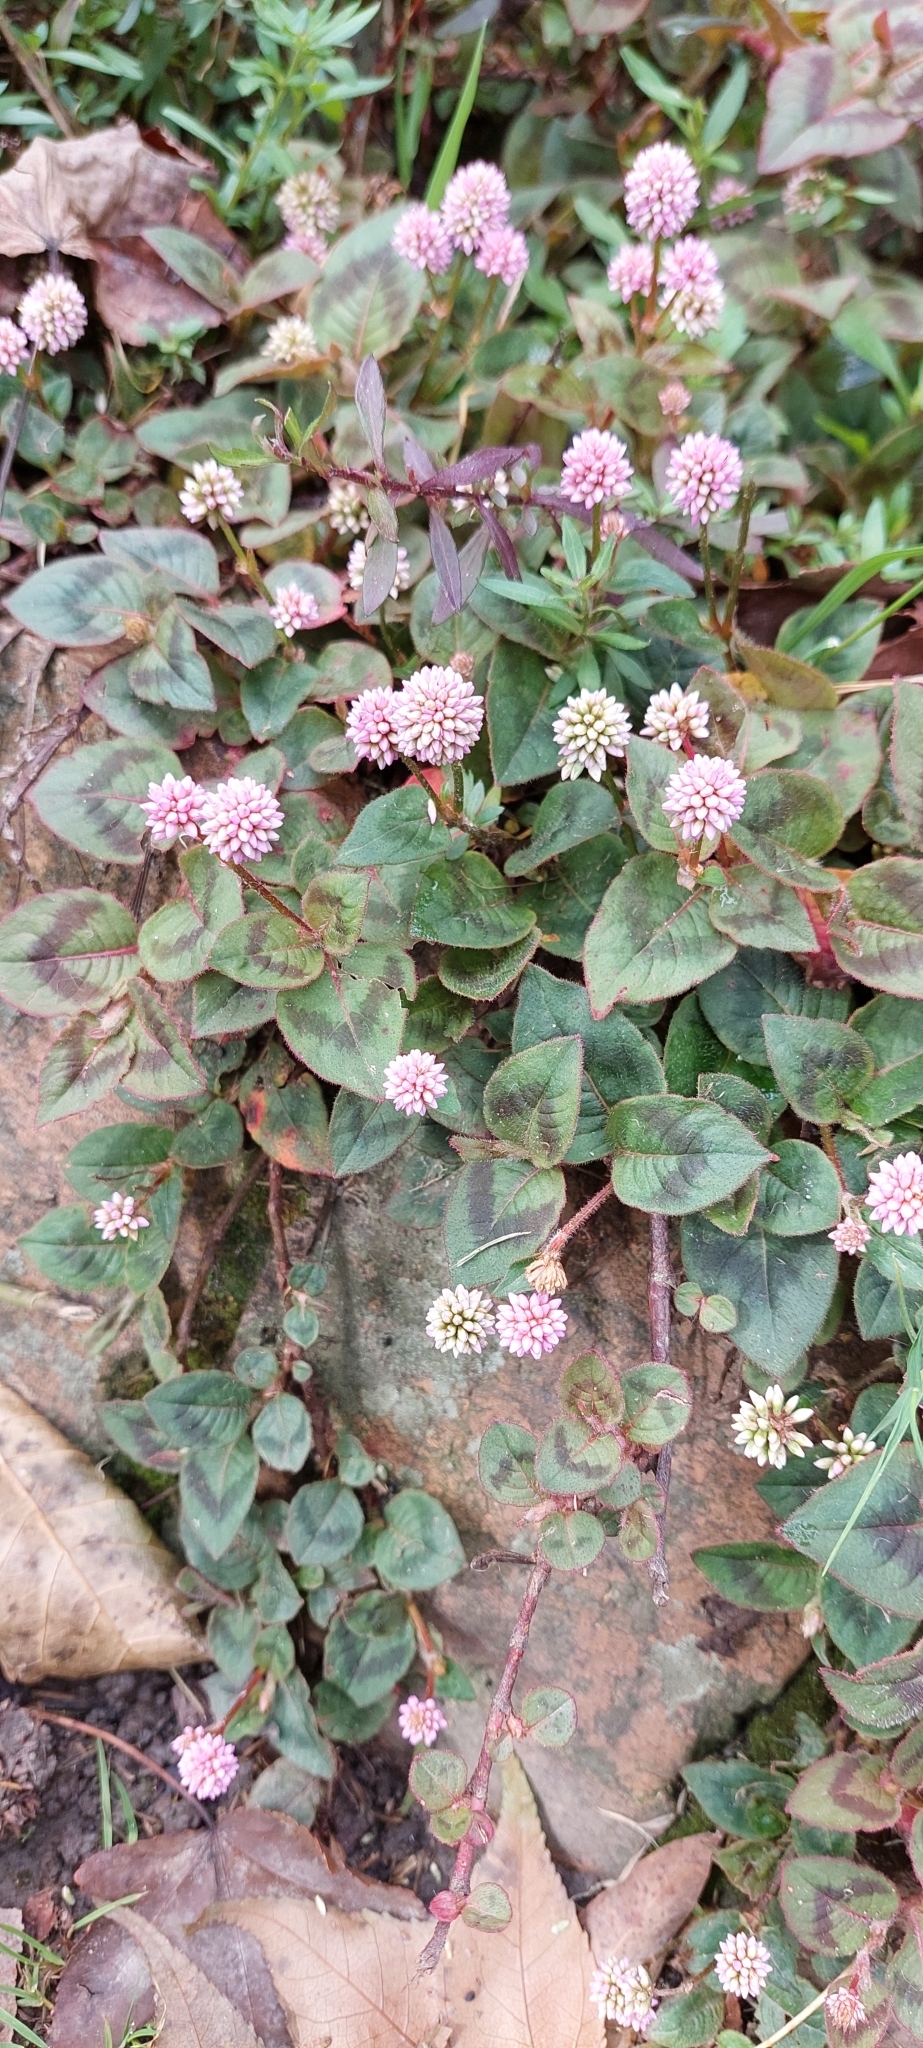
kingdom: Plantae
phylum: Tracheophyta
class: Magnoliopsida
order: Caryophyllales
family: Polygonaceae
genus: Persicaria
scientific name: Persicaria capitata
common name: Pinkhead smartweed
